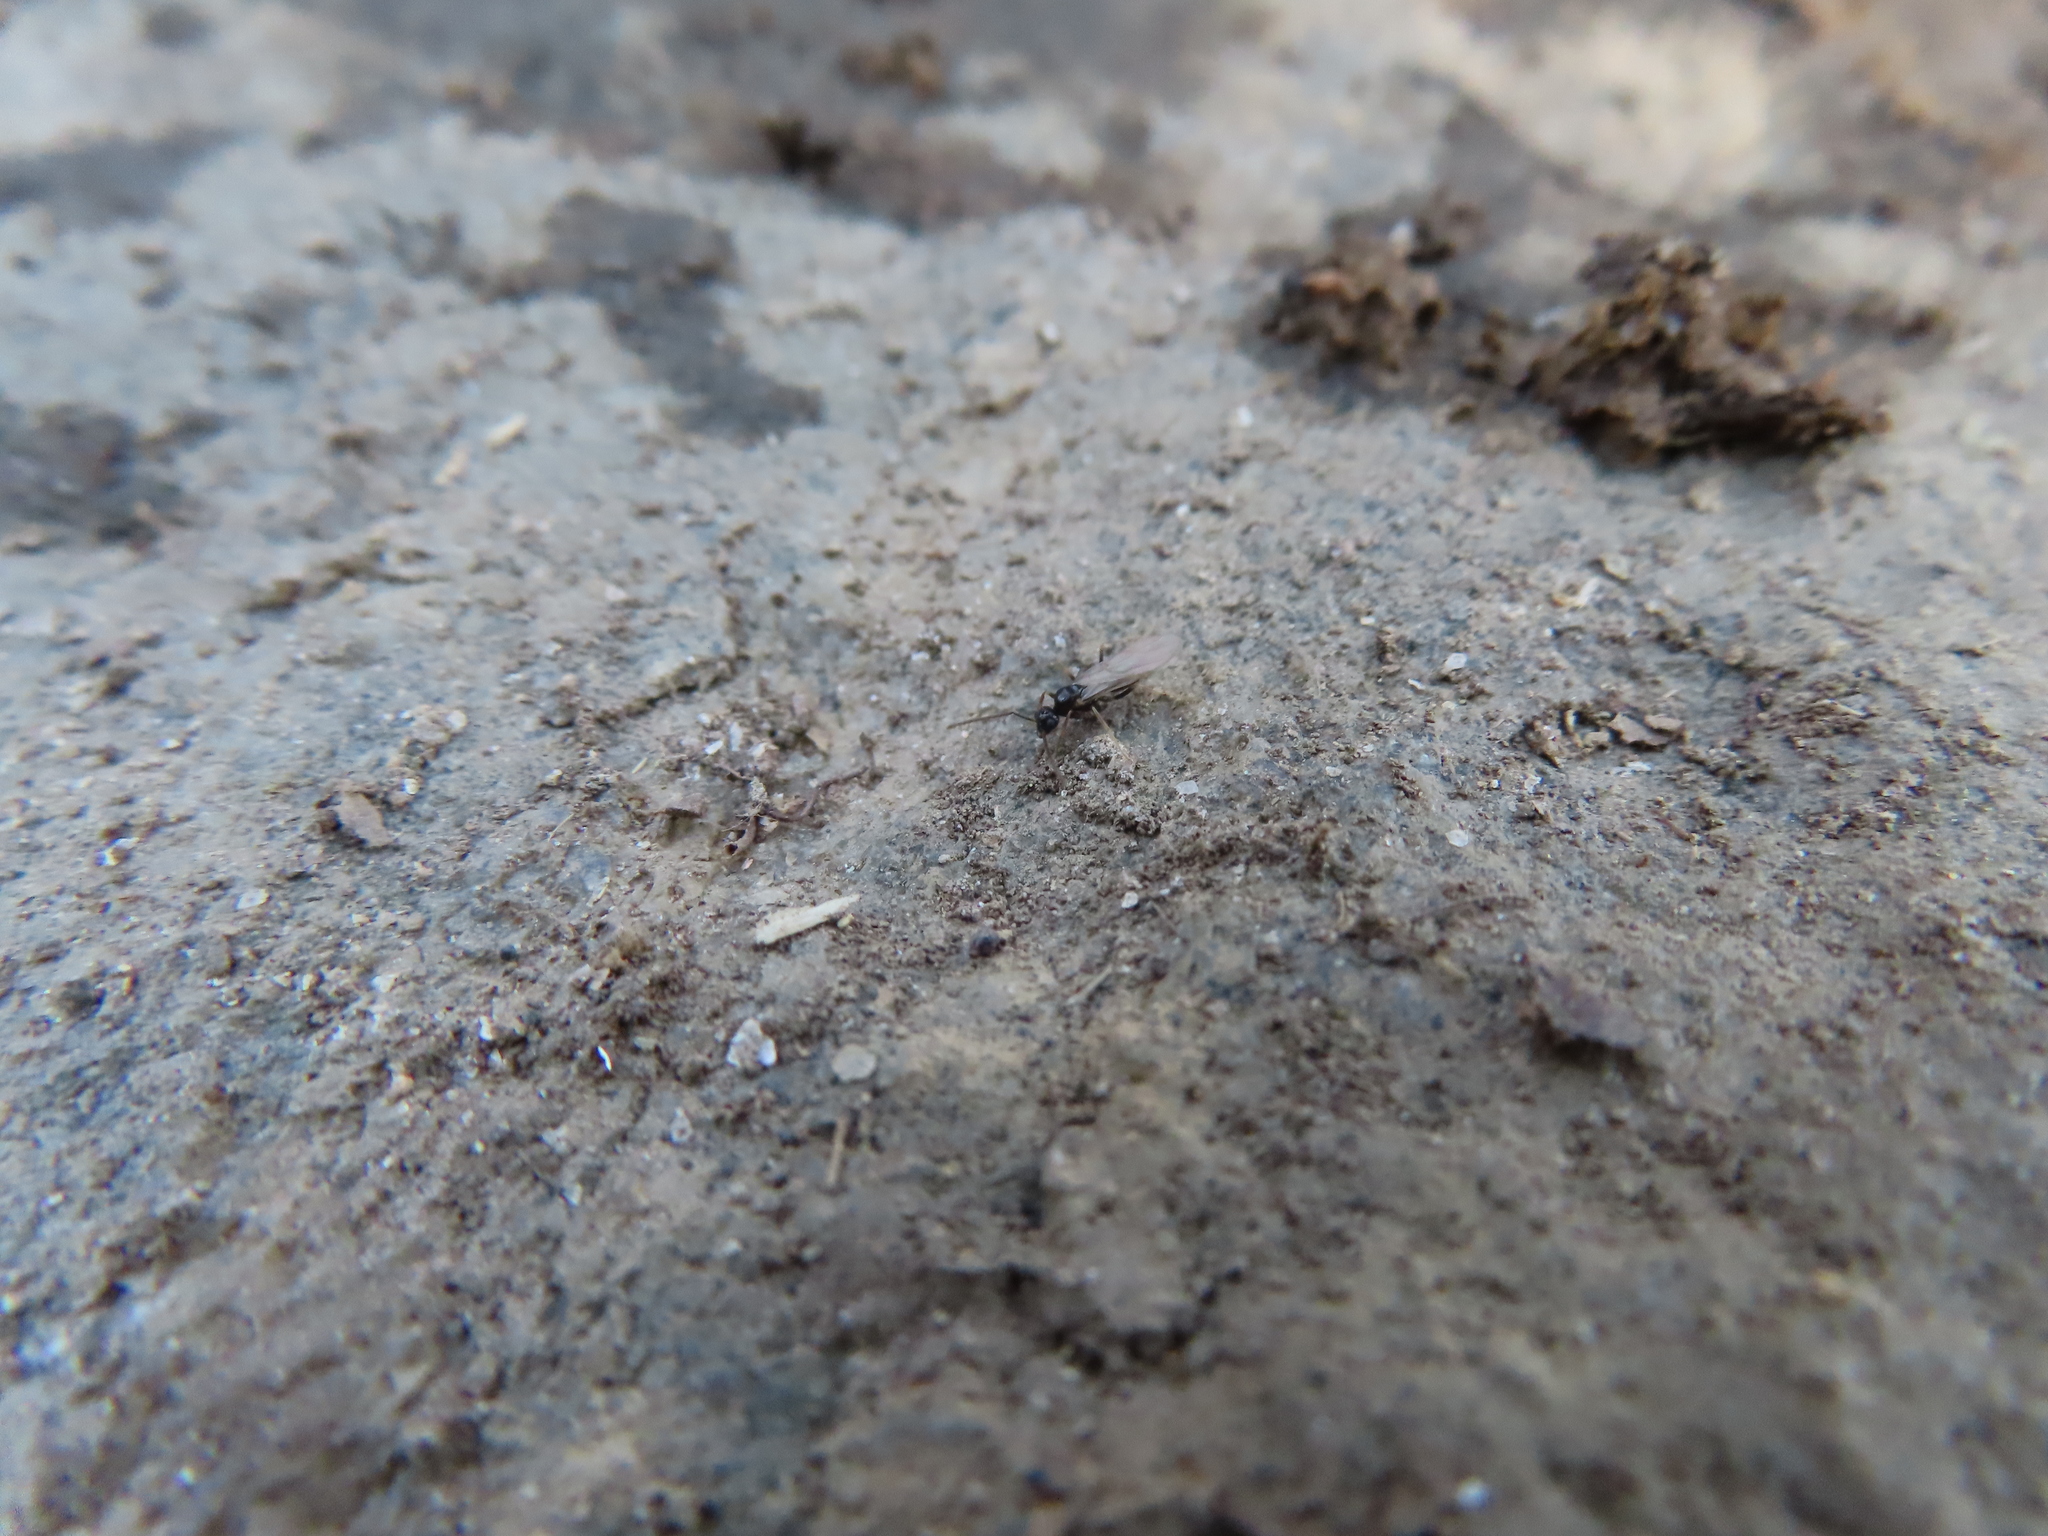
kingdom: Animalia
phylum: Arthropoda
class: Insecta
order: Hymenoptera
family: Formicidae
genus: Prenolepis
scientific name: Prenolepis imparis
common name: Small honey ant
